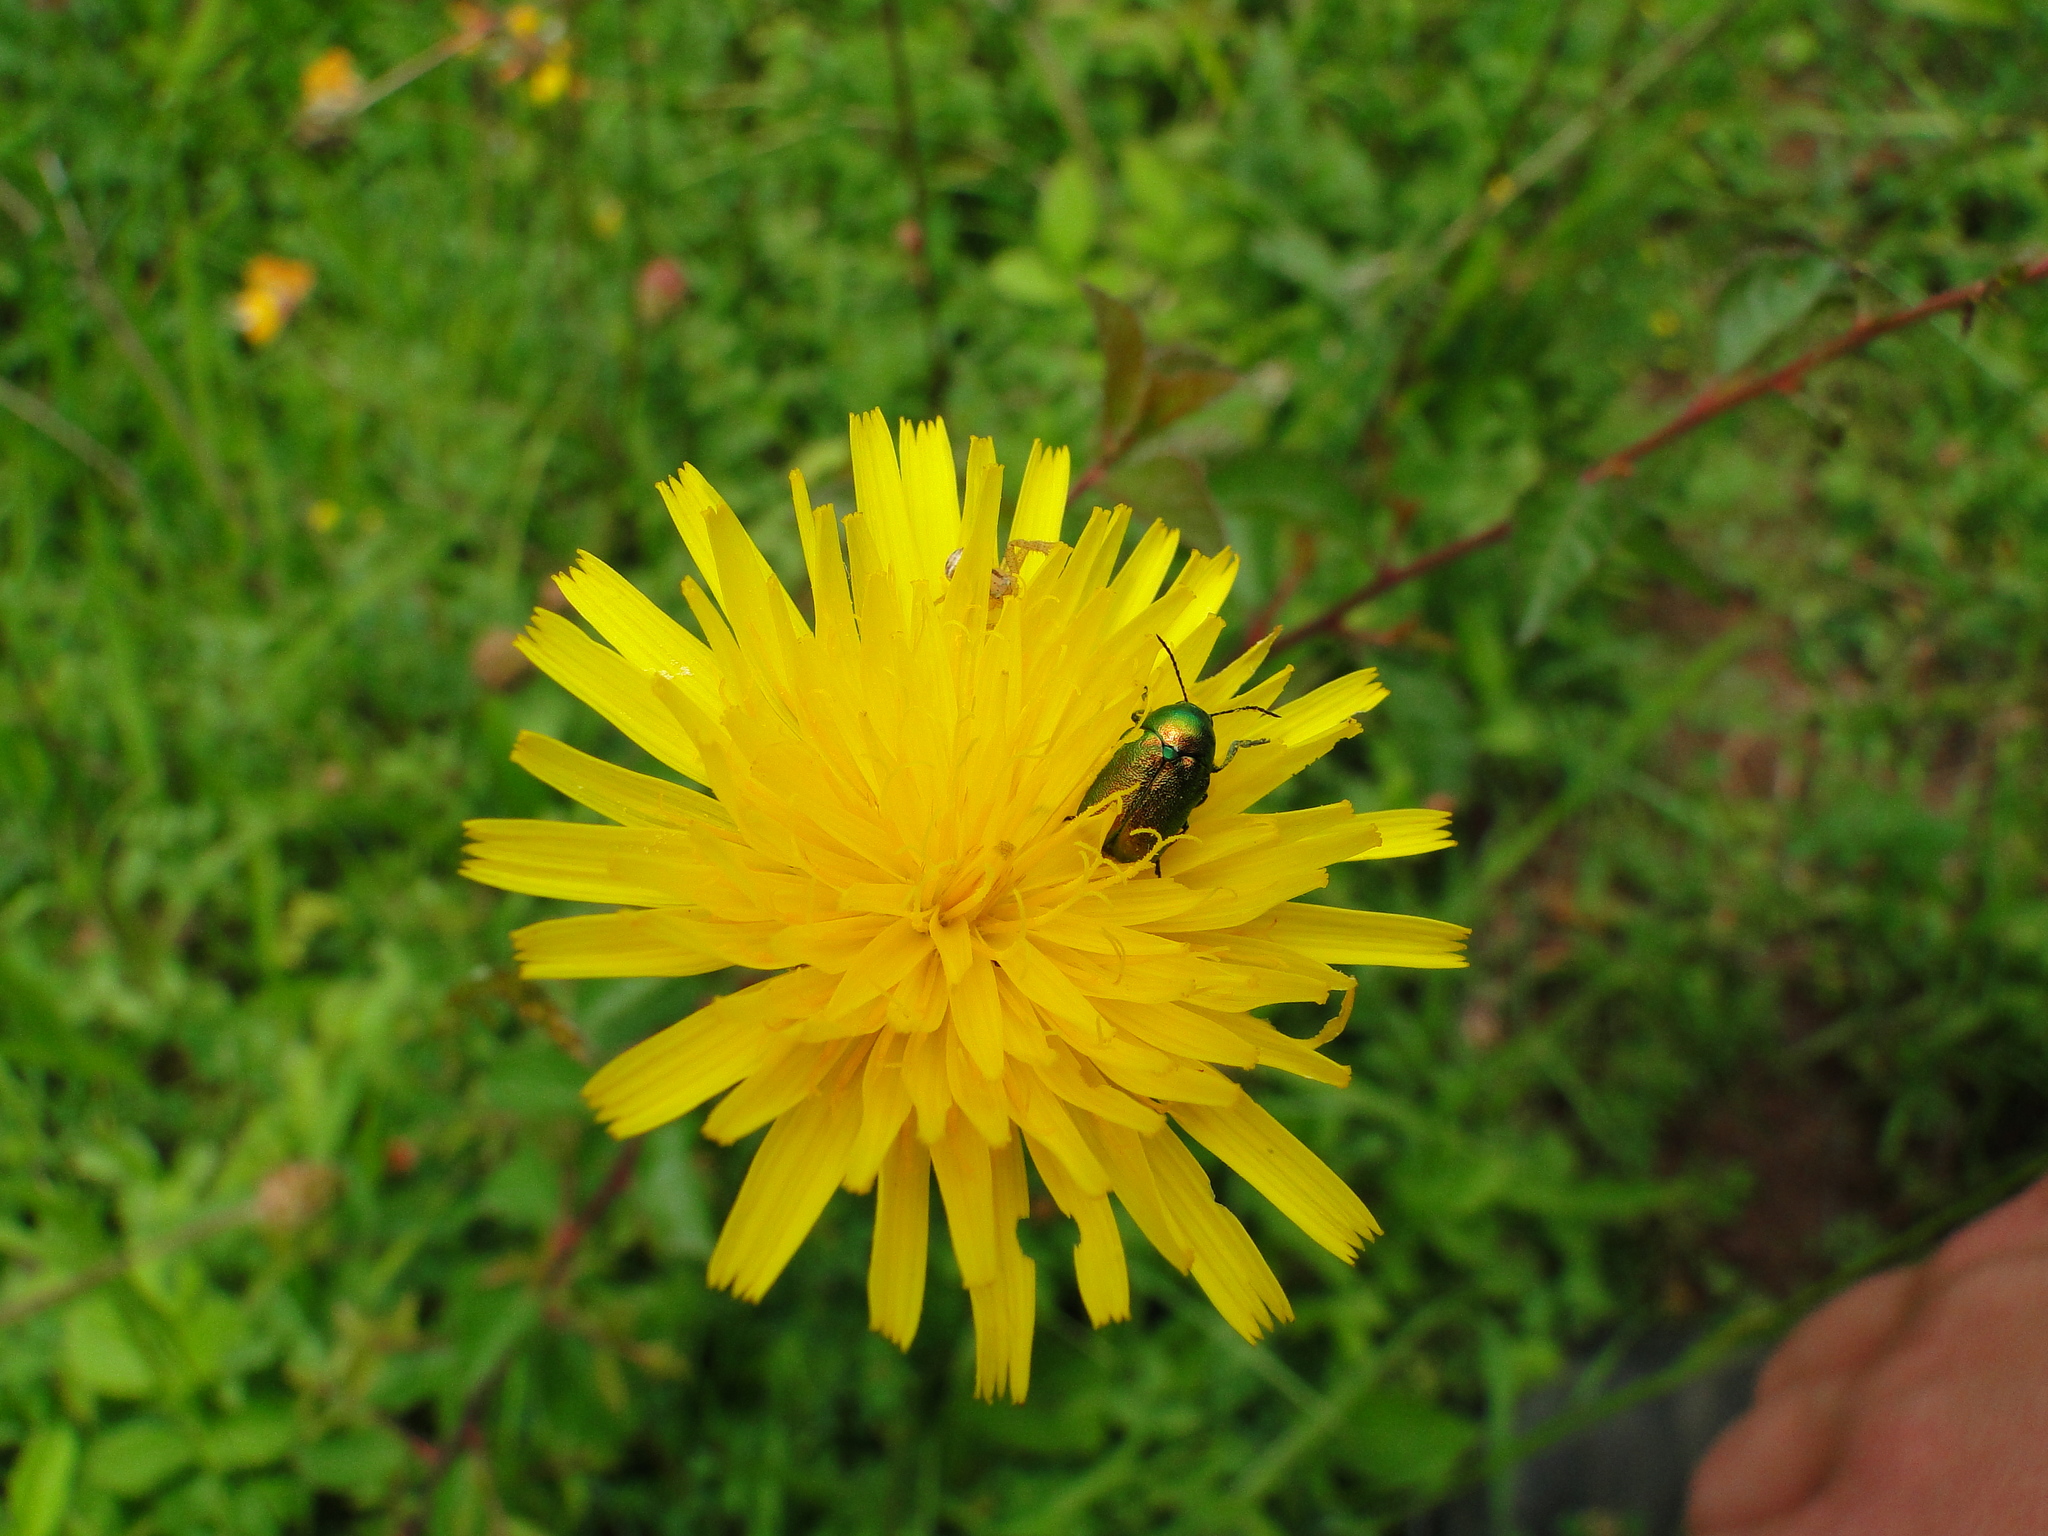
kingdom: Animalia
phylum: Arthropoda
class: Insecta
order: Coleoptera
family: Chrysomelidae
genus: Cryptocephalus
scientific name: Cryptocephalus
